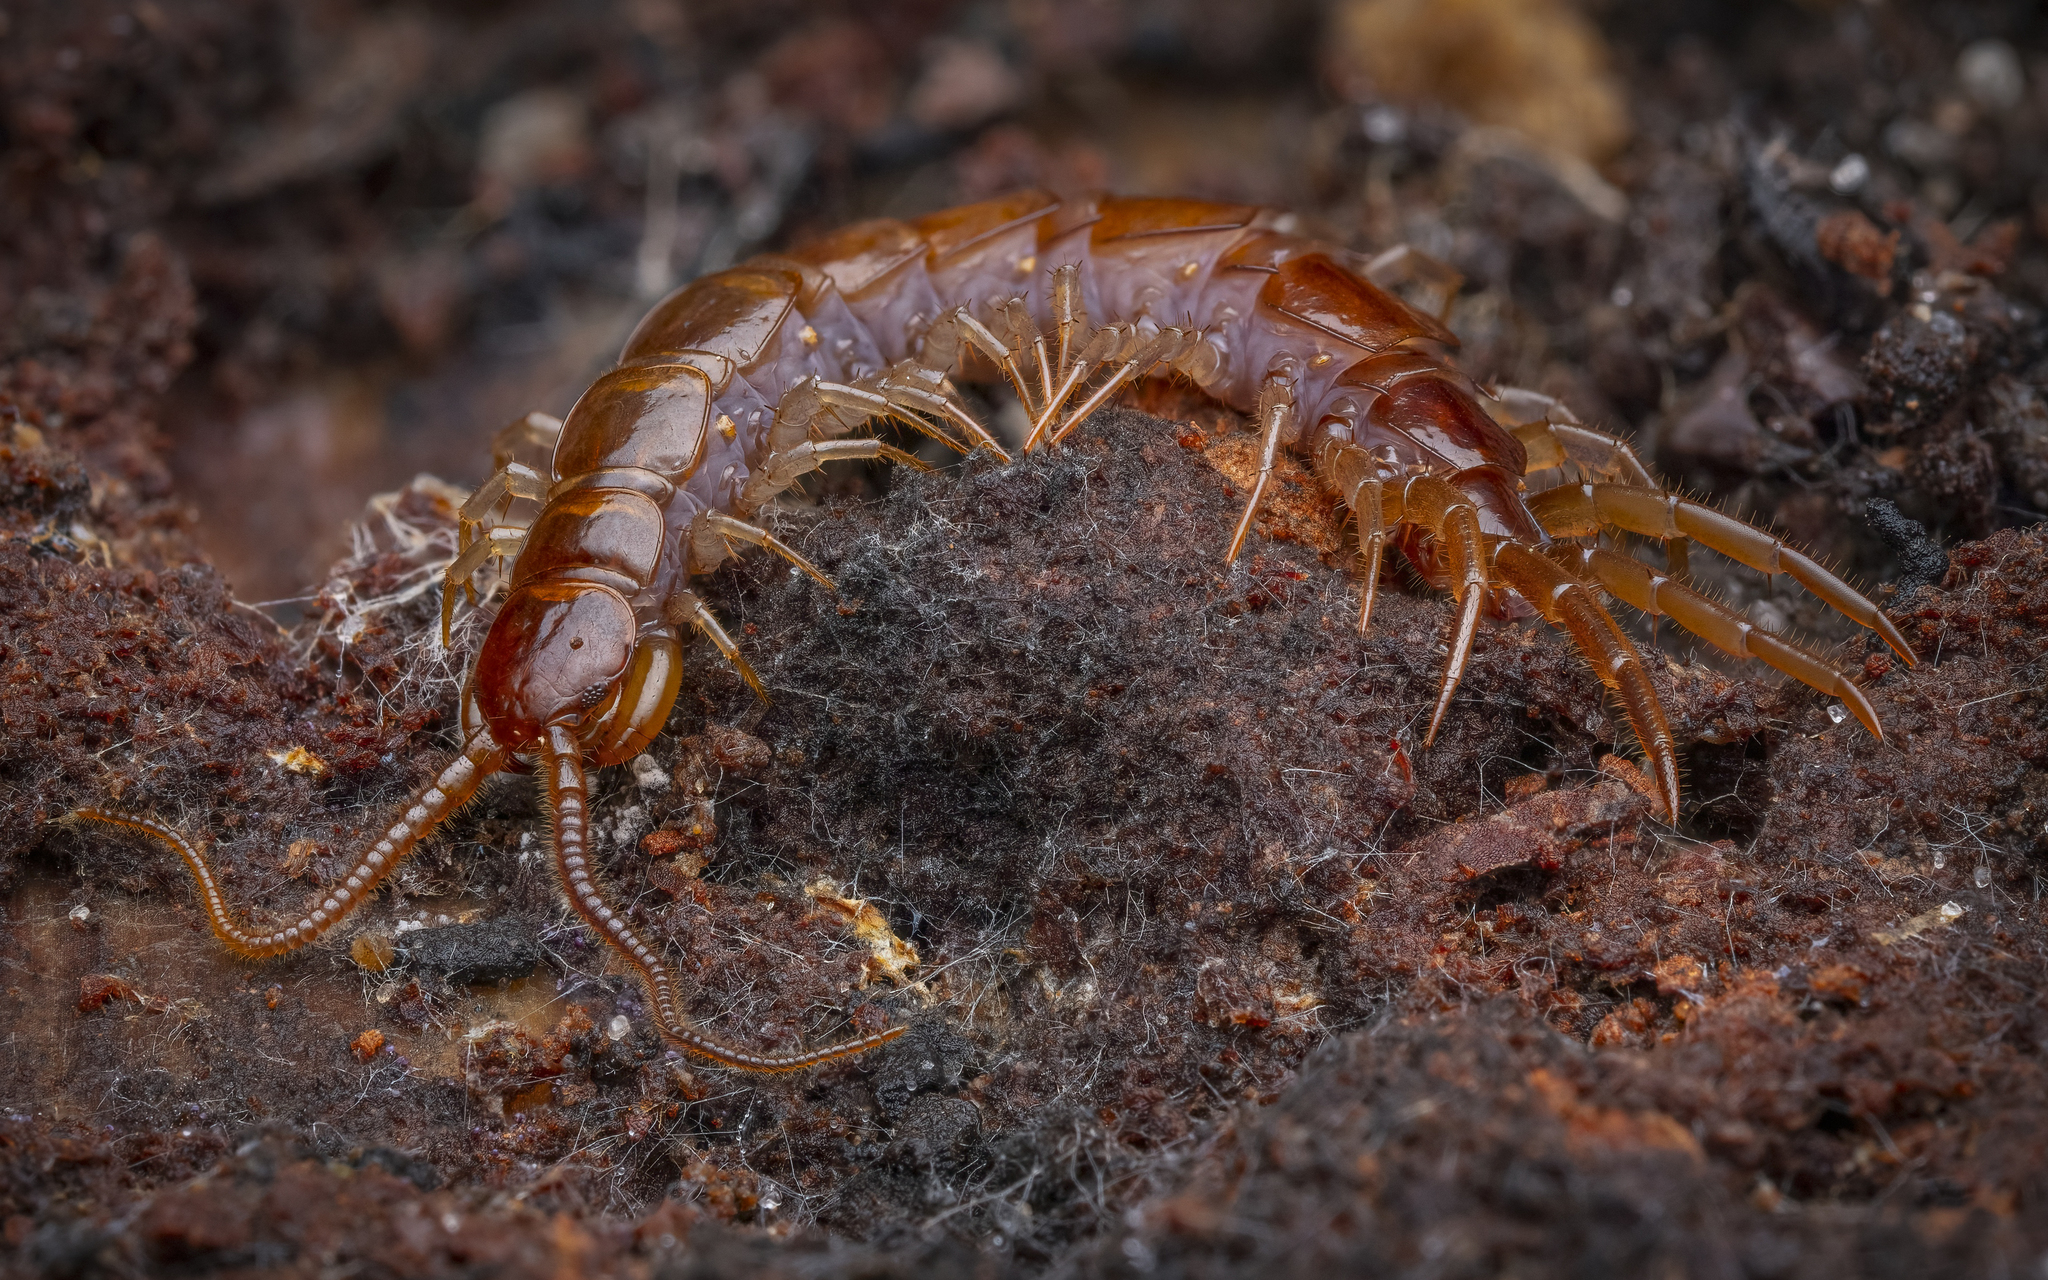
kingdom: Animalia
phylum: Arthropoda
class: Chilopoda
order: Lithobiomorpha
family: Lithobiidae
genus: Lithobius
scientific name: Lithobius forficatus
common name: Centipede
